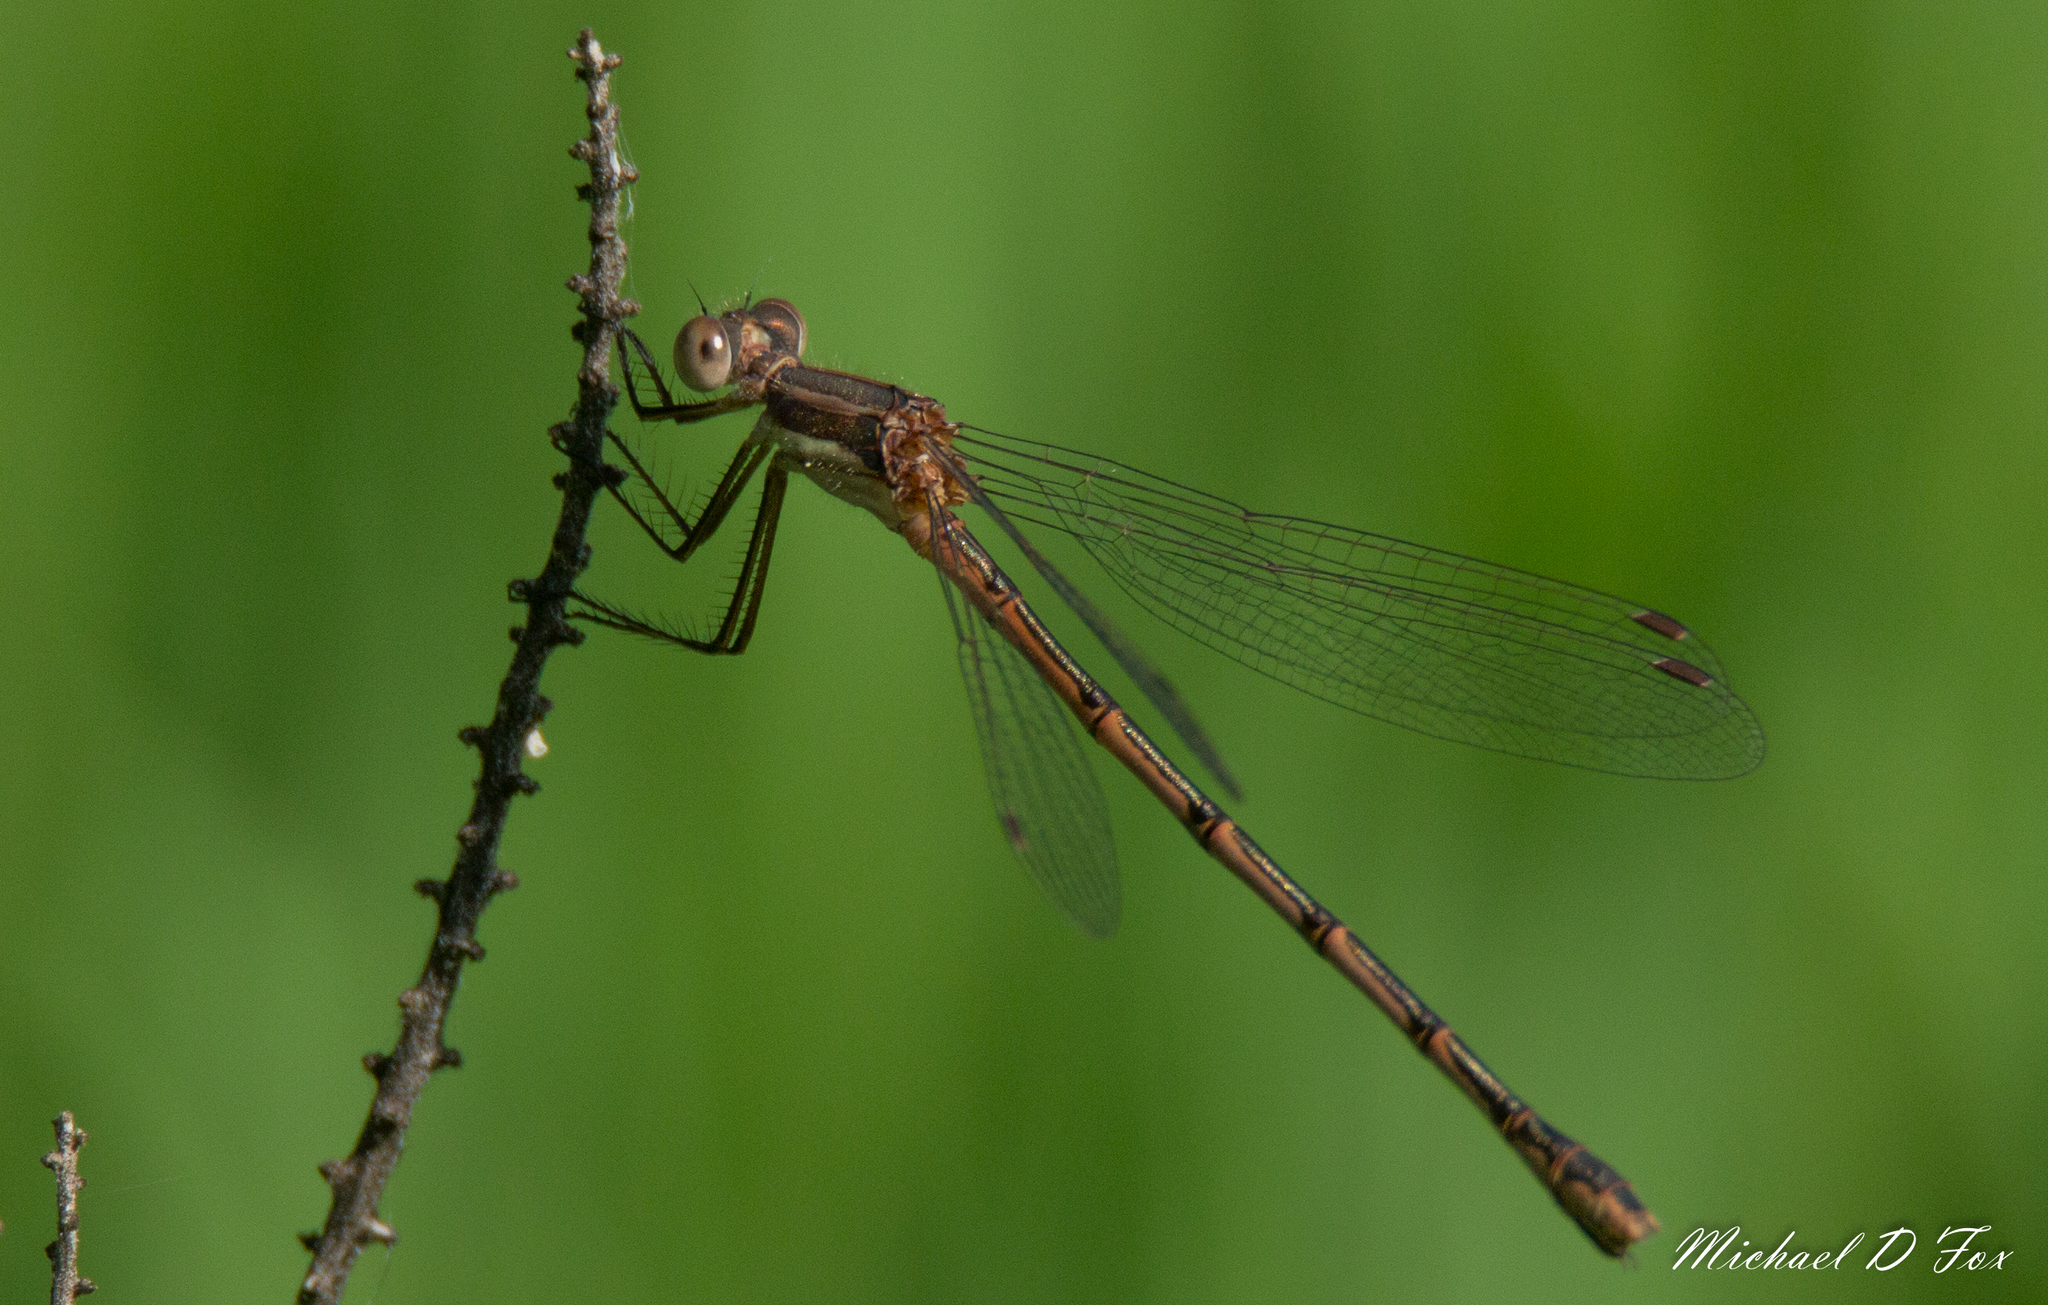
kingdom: Animalia
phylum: Arthropoda
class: Insecta
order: Odonata
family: Lestidae
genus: Lestes
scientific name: Lestes australis
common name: Southern spreadwing
